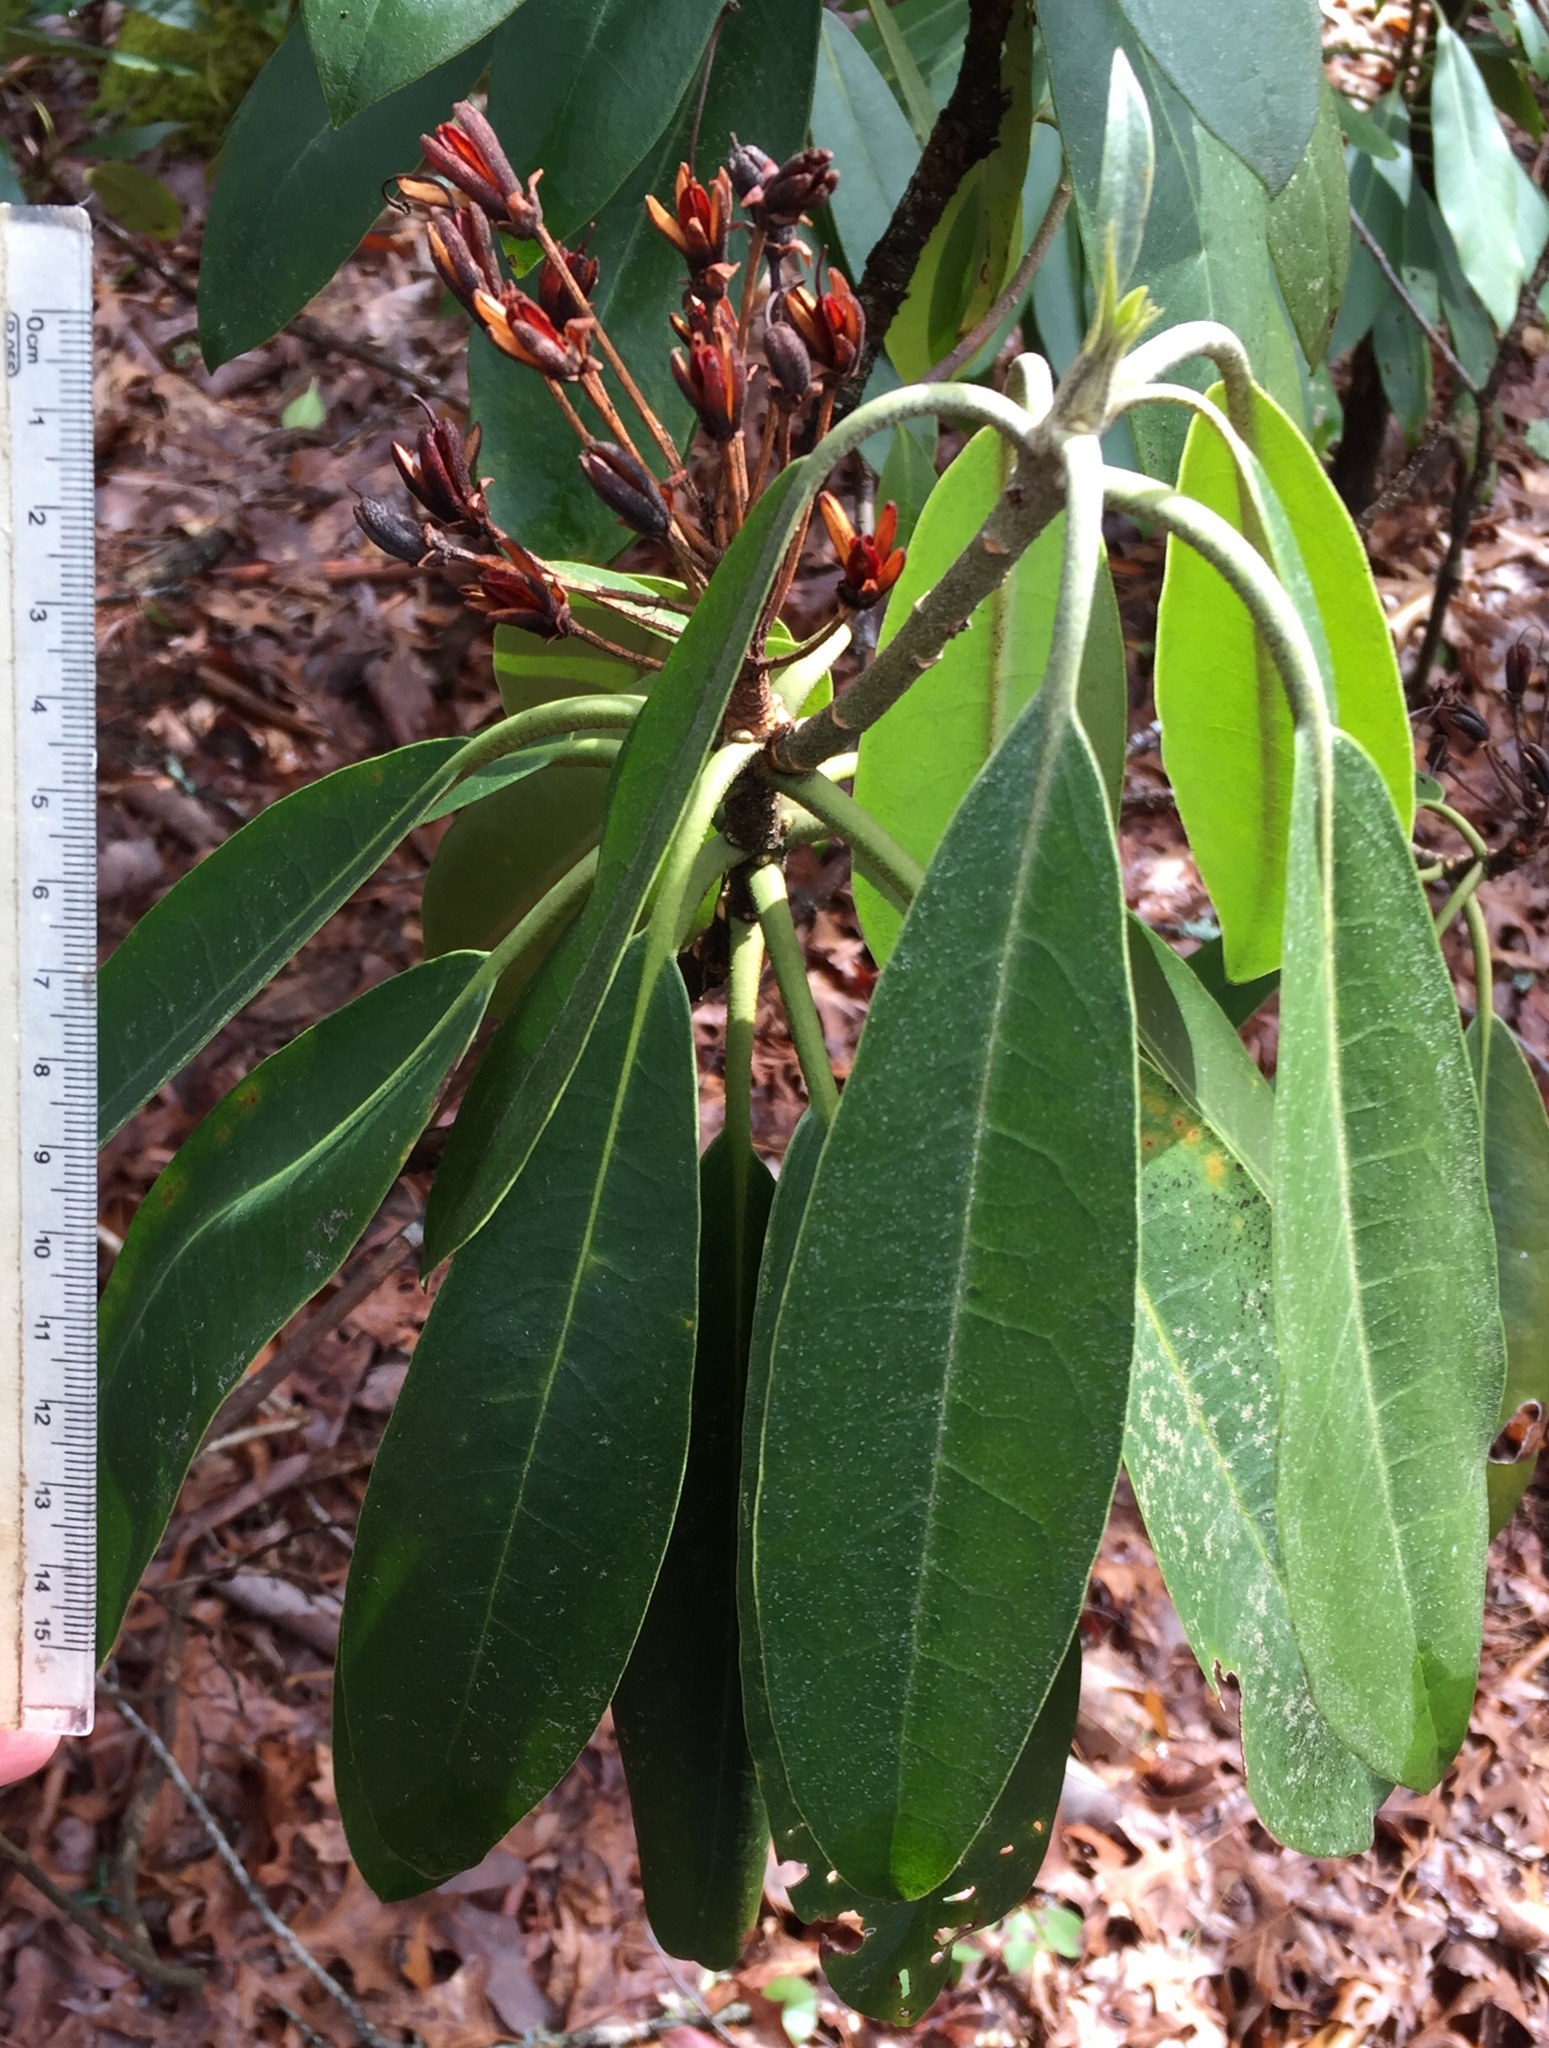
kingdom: Plantae
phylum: Tracheophyta
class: Magnoliopsida
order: Ericales
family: Ericaceae
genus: Rhododendron
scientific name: Rhododendron maximum
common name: Great rhododendron
